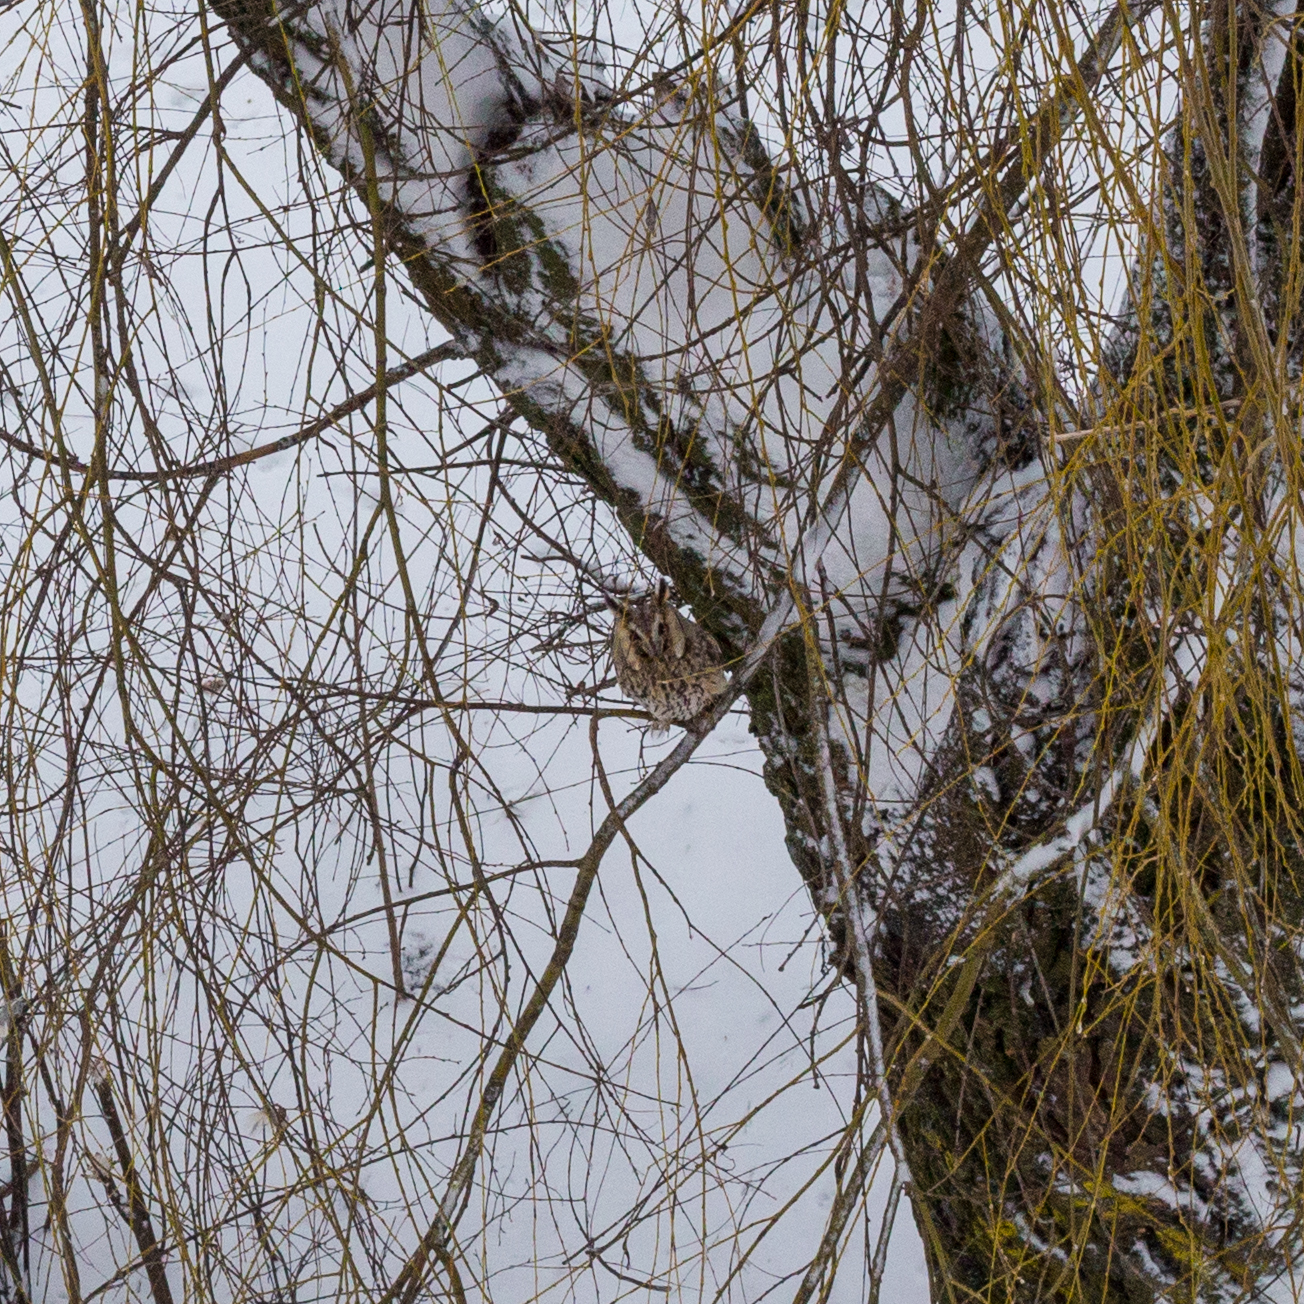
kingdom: Animalia
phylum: Chordata
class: Aves
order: Strigiformes
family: Strigidae
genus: Asio
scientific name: Asio otus
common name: Long-eared owl
